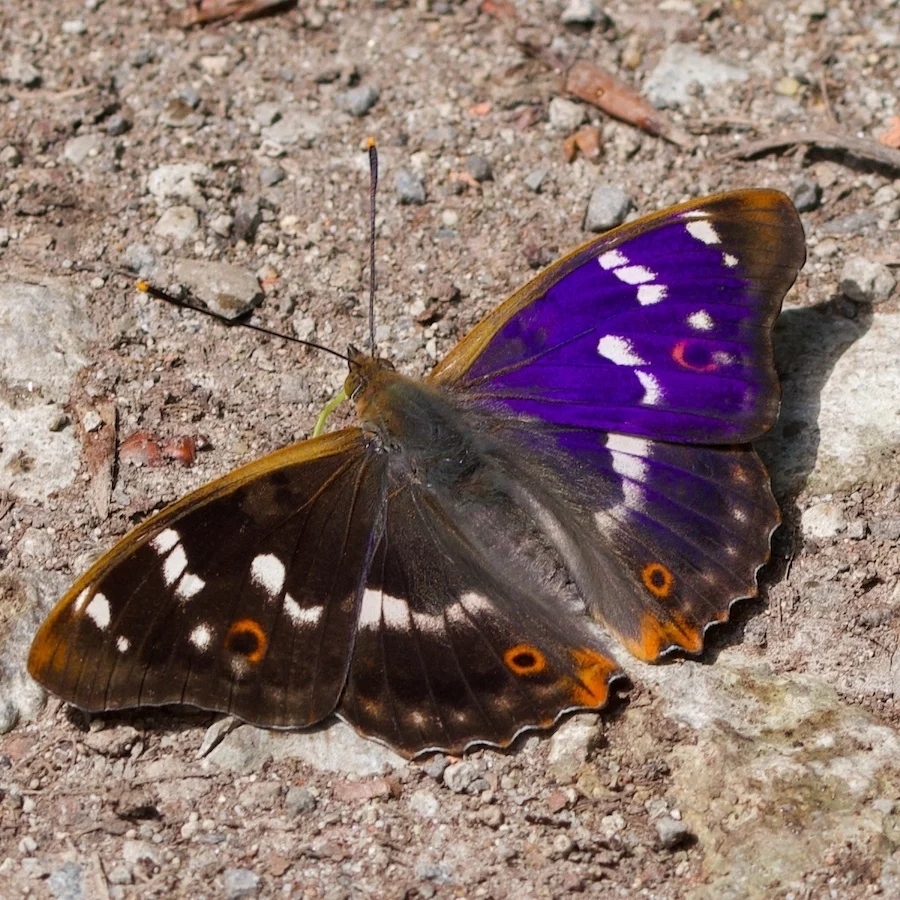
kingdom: Animalia
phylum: Arthropoda
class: Insecta
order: Lepidoptera
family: Nymphalidae
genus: Apatura
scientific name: Apatura ilia
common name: Lesser purple emperor
